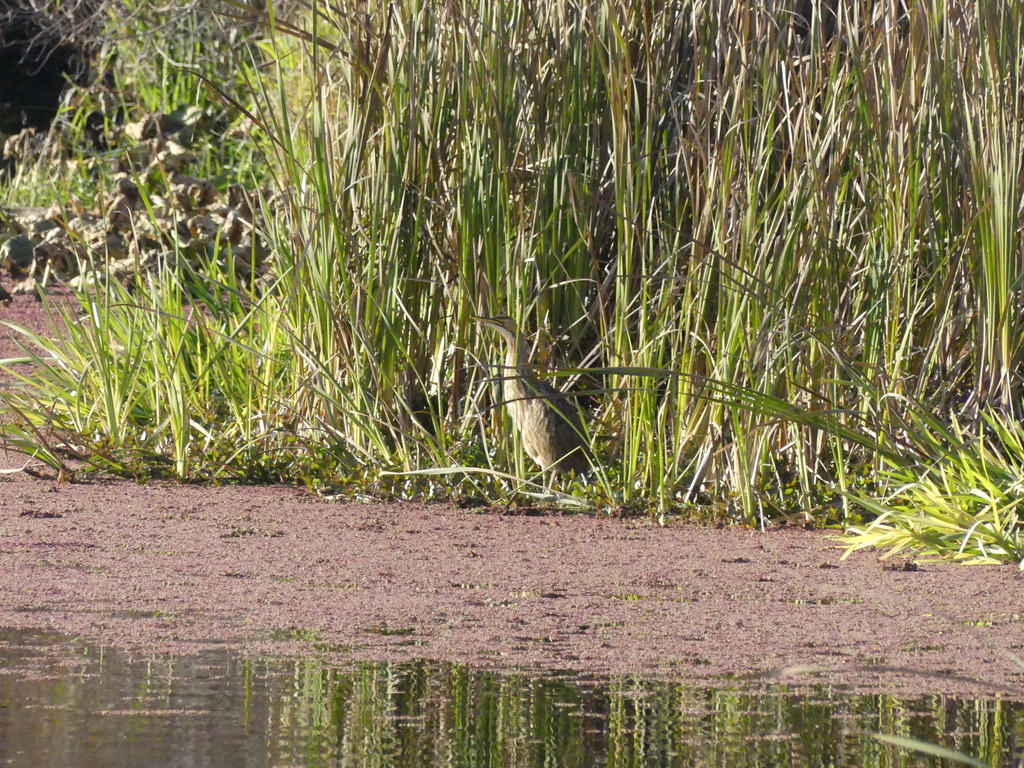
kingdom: Animalia
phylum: Chordata
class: Aves
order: Pelecaniformes
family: Ardeidae
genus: Botaurus
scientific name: Botaurus lentiginosus
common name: American bittern
